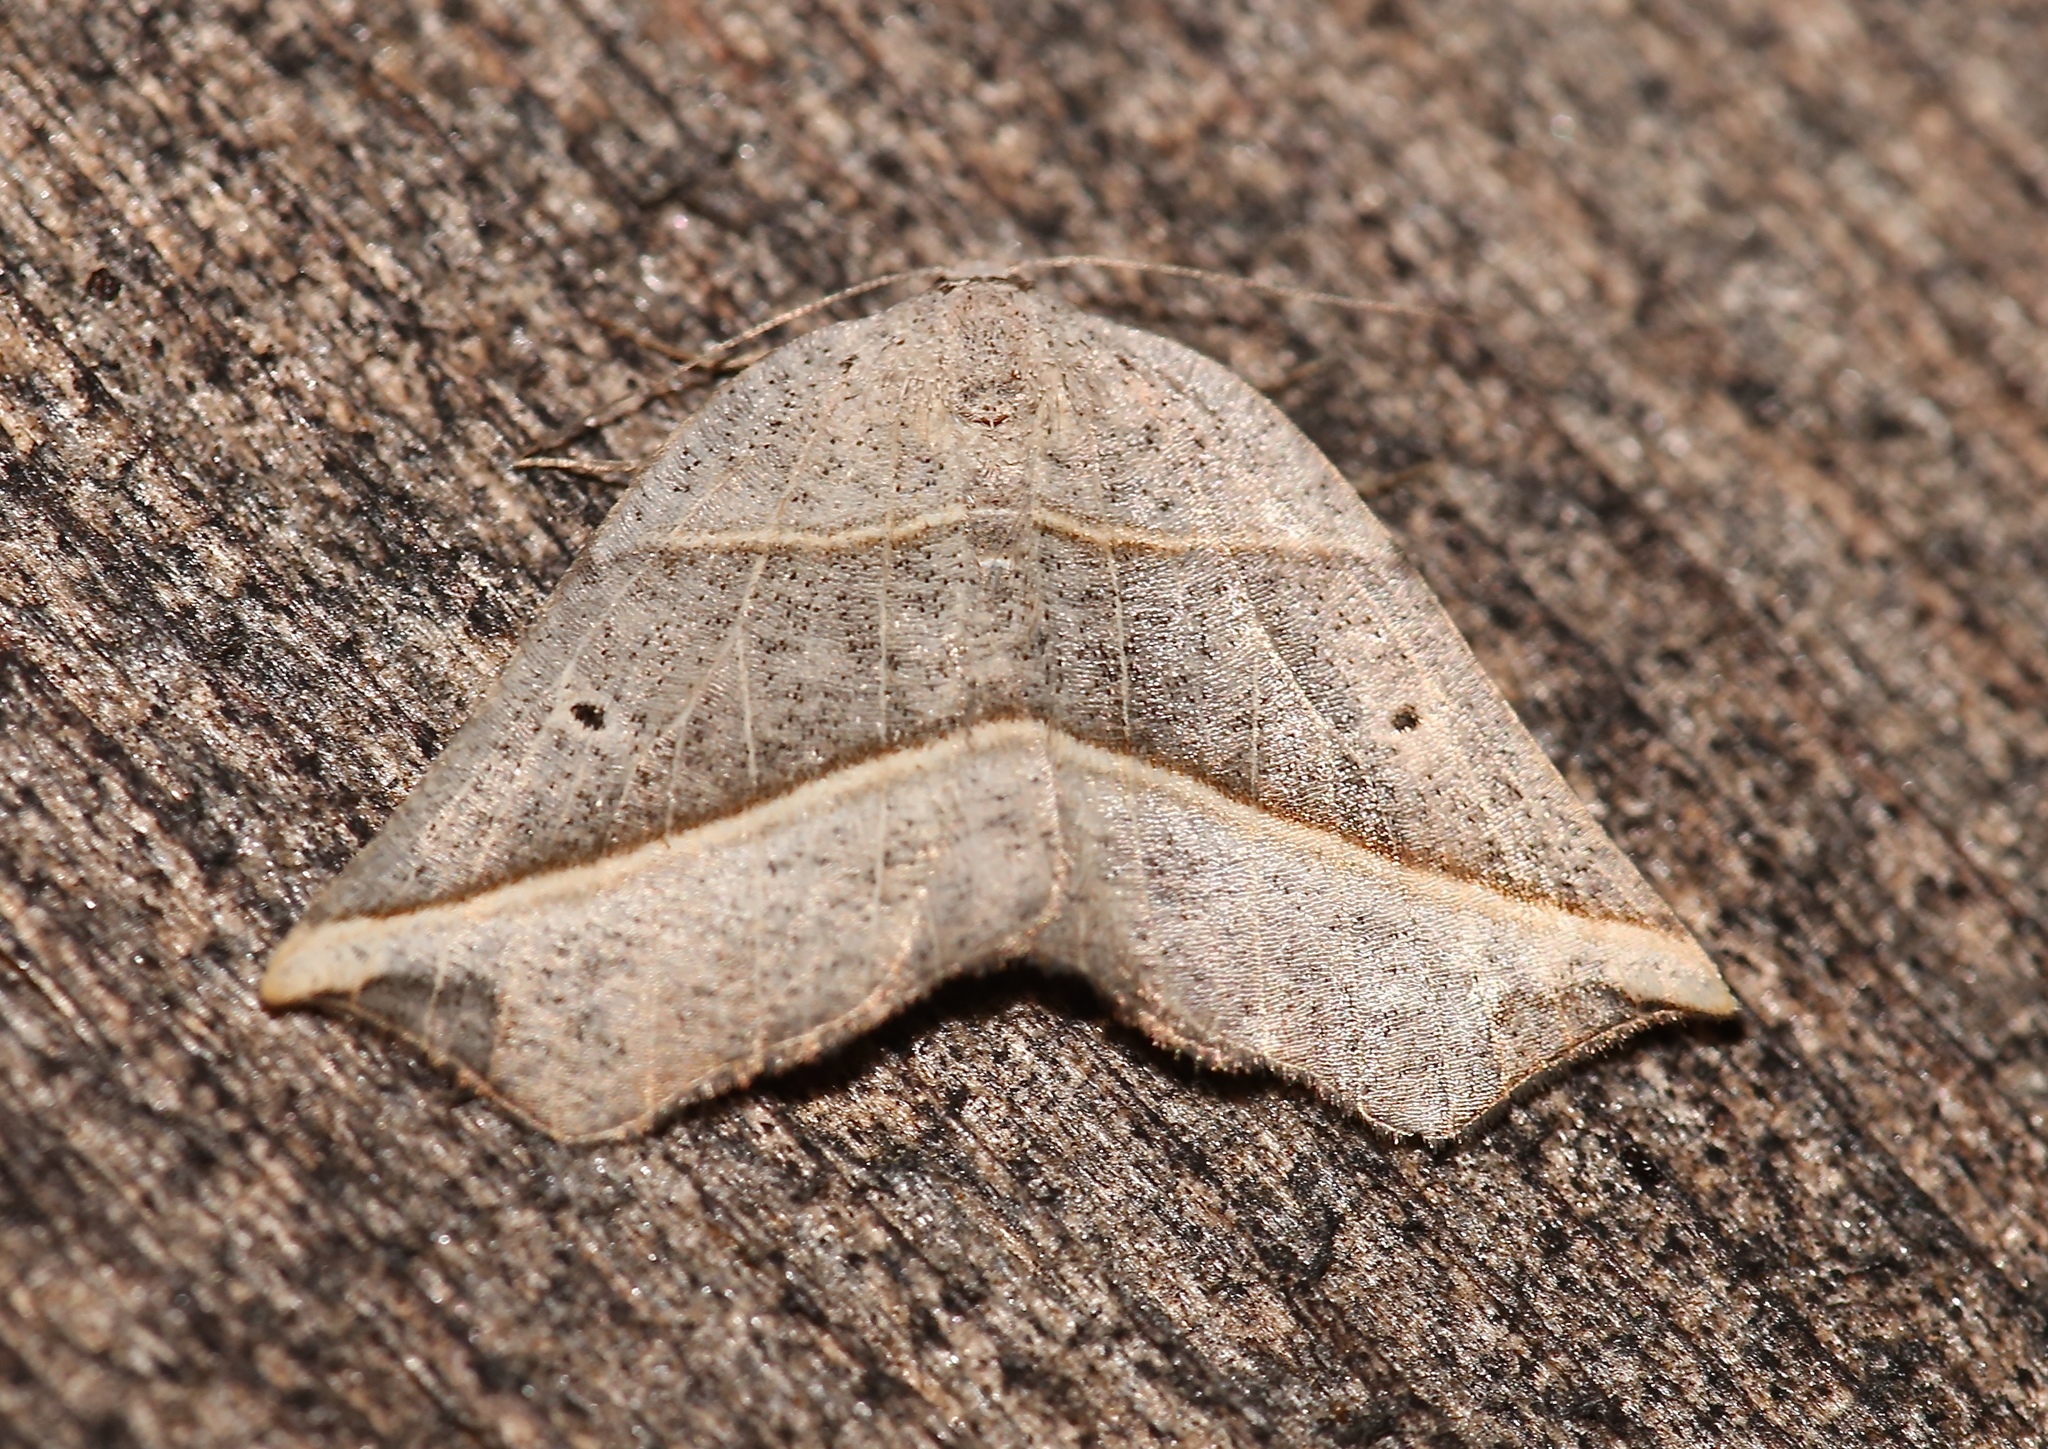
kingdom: Animalia
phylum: Arthropoda
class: Insecta
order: Lepidoptera
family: Geometridae
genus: Metanema
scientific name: Metanema determinata
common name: Dark metanema
